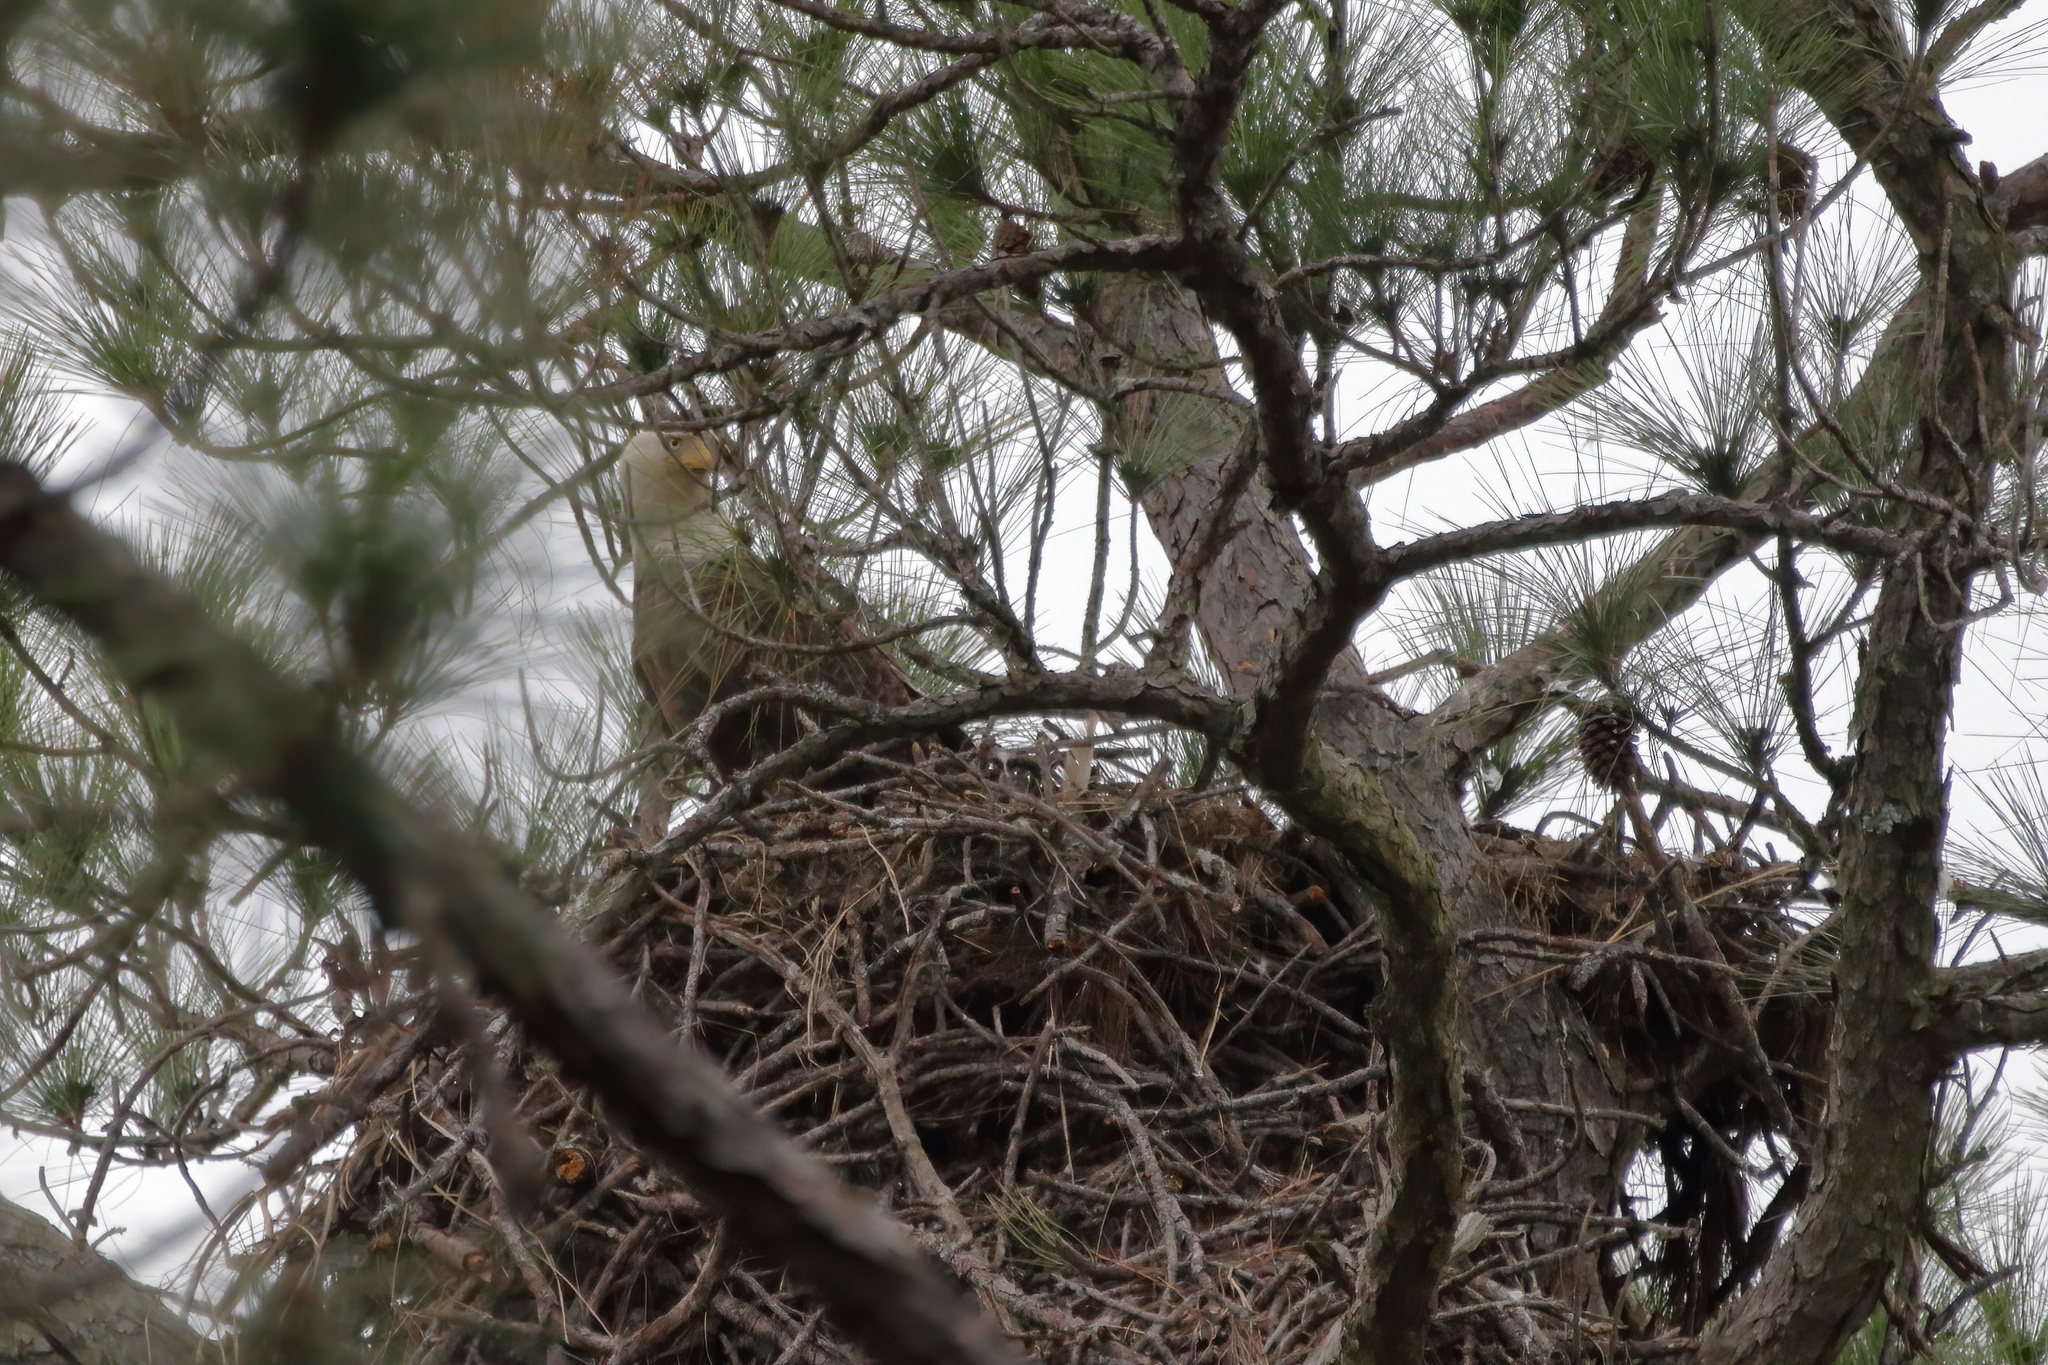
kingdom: Animalia
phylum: Chordata
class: Aves
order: Accipitriformes
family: Accipitridae
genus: Haliaeetus
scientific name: Haliaeetus leucocephalus
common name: Bald eagle
